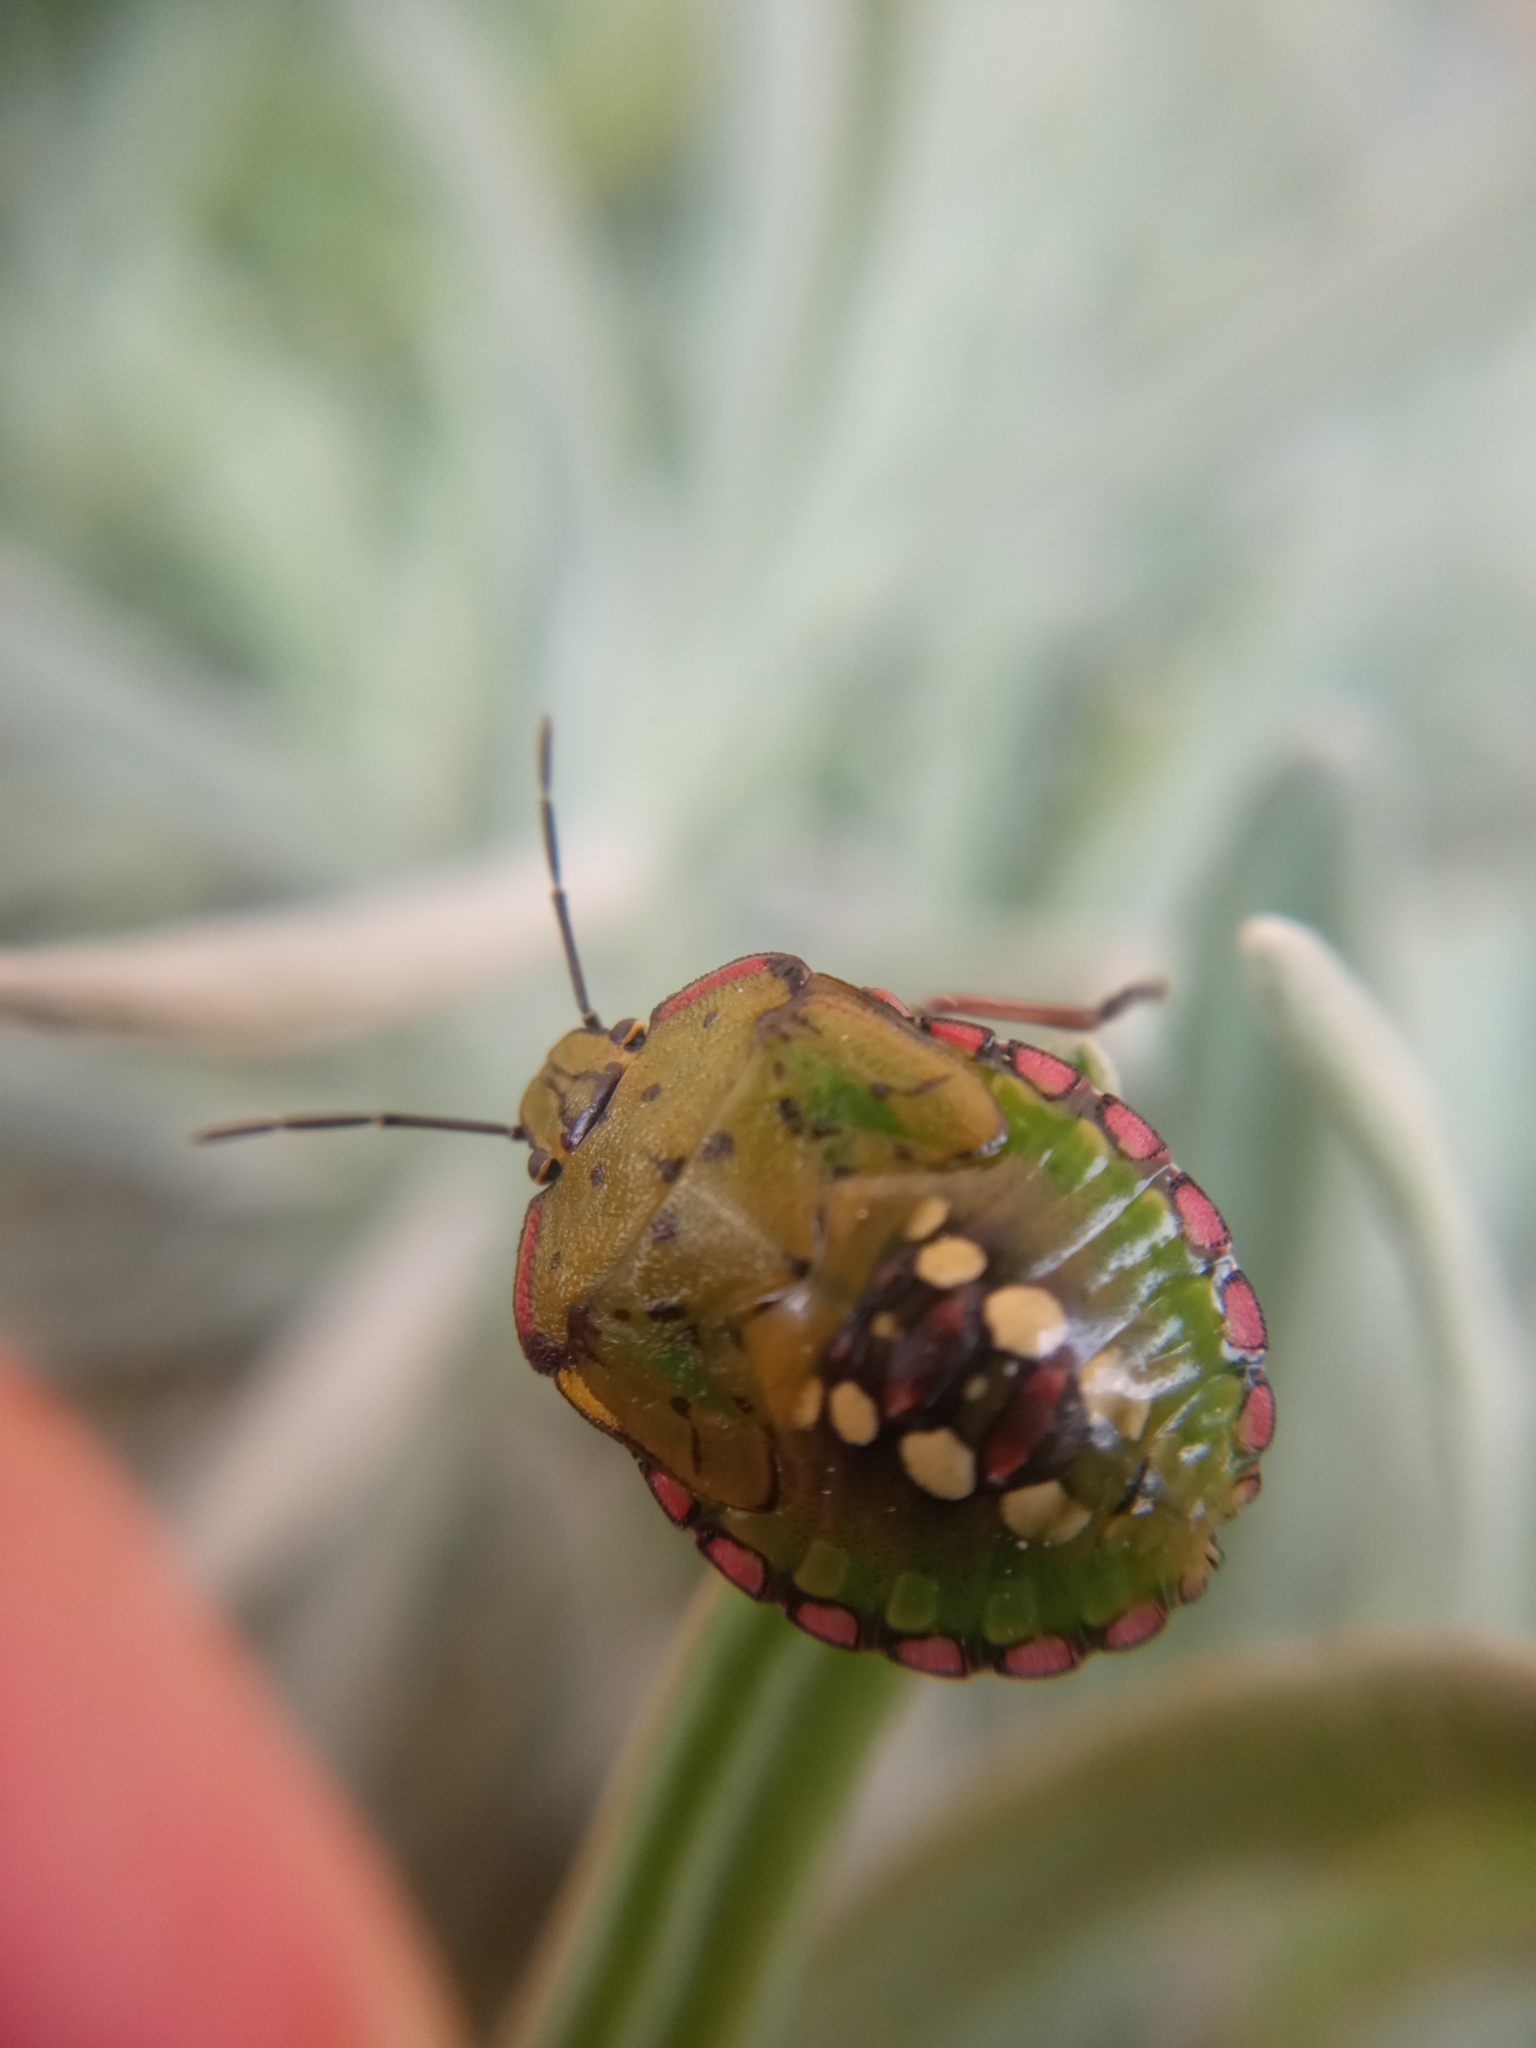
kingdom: Animalia
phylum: Arthropoda
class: Insecta
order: Hemiptera
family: Pentatomidae
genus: Nezara
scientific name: Nezara viridula
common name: Southern green stink bug
